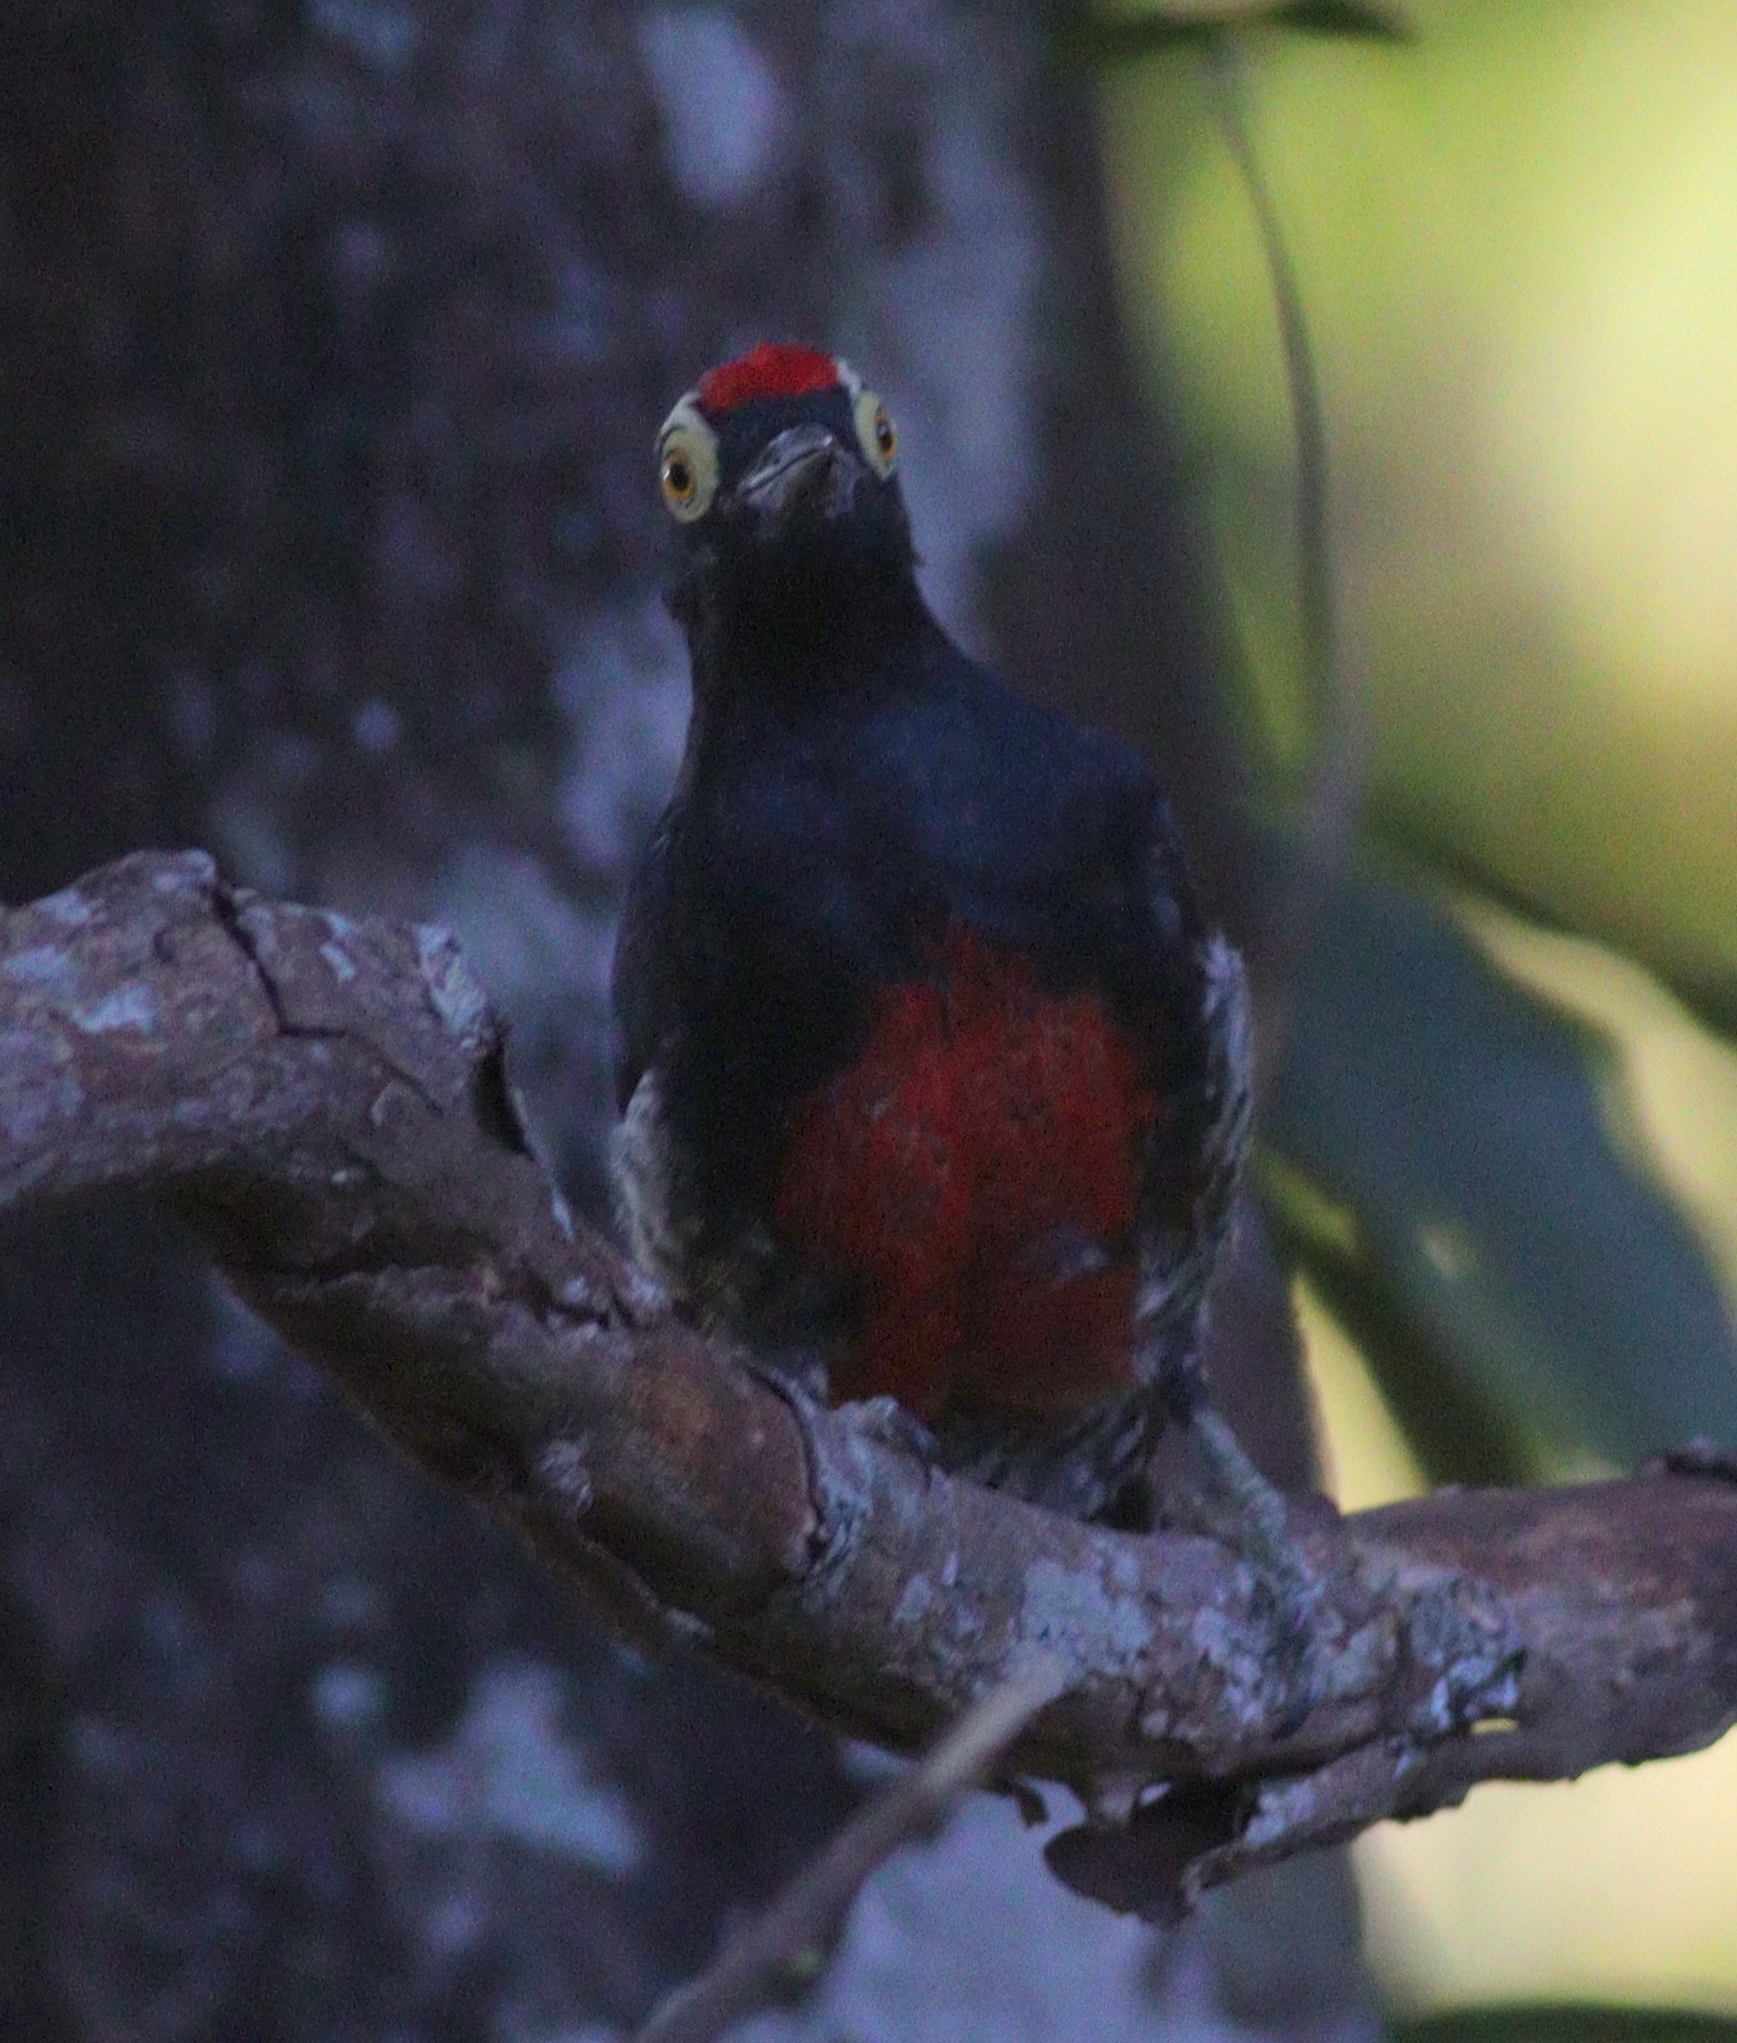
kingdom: Animalia
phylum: Chordata
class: Aves
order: Piciformes
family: Picidae
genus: Melanerpes
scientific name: Melanerpes cruentatus
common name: Yellow-tufted woodpecker
